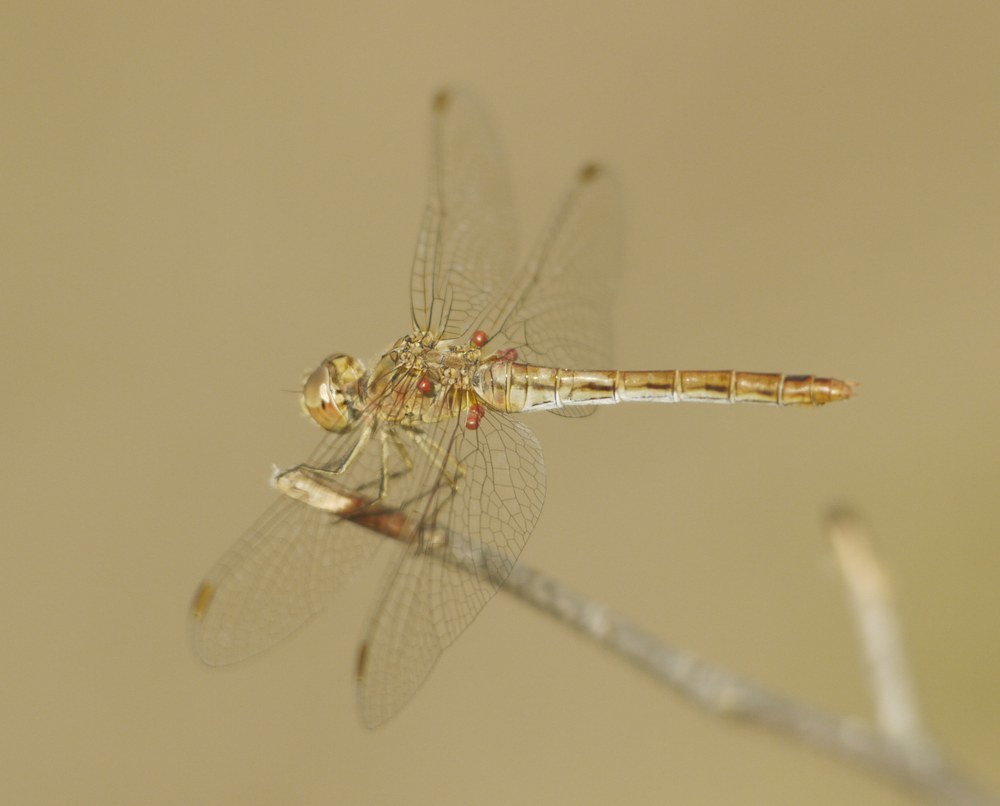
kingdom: Animalia
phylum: Arthropoda
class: Insecta
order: Odonata
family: Libellulidae
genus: Sympetrum
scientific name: Sympetrum meridionale
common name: Southern darter
